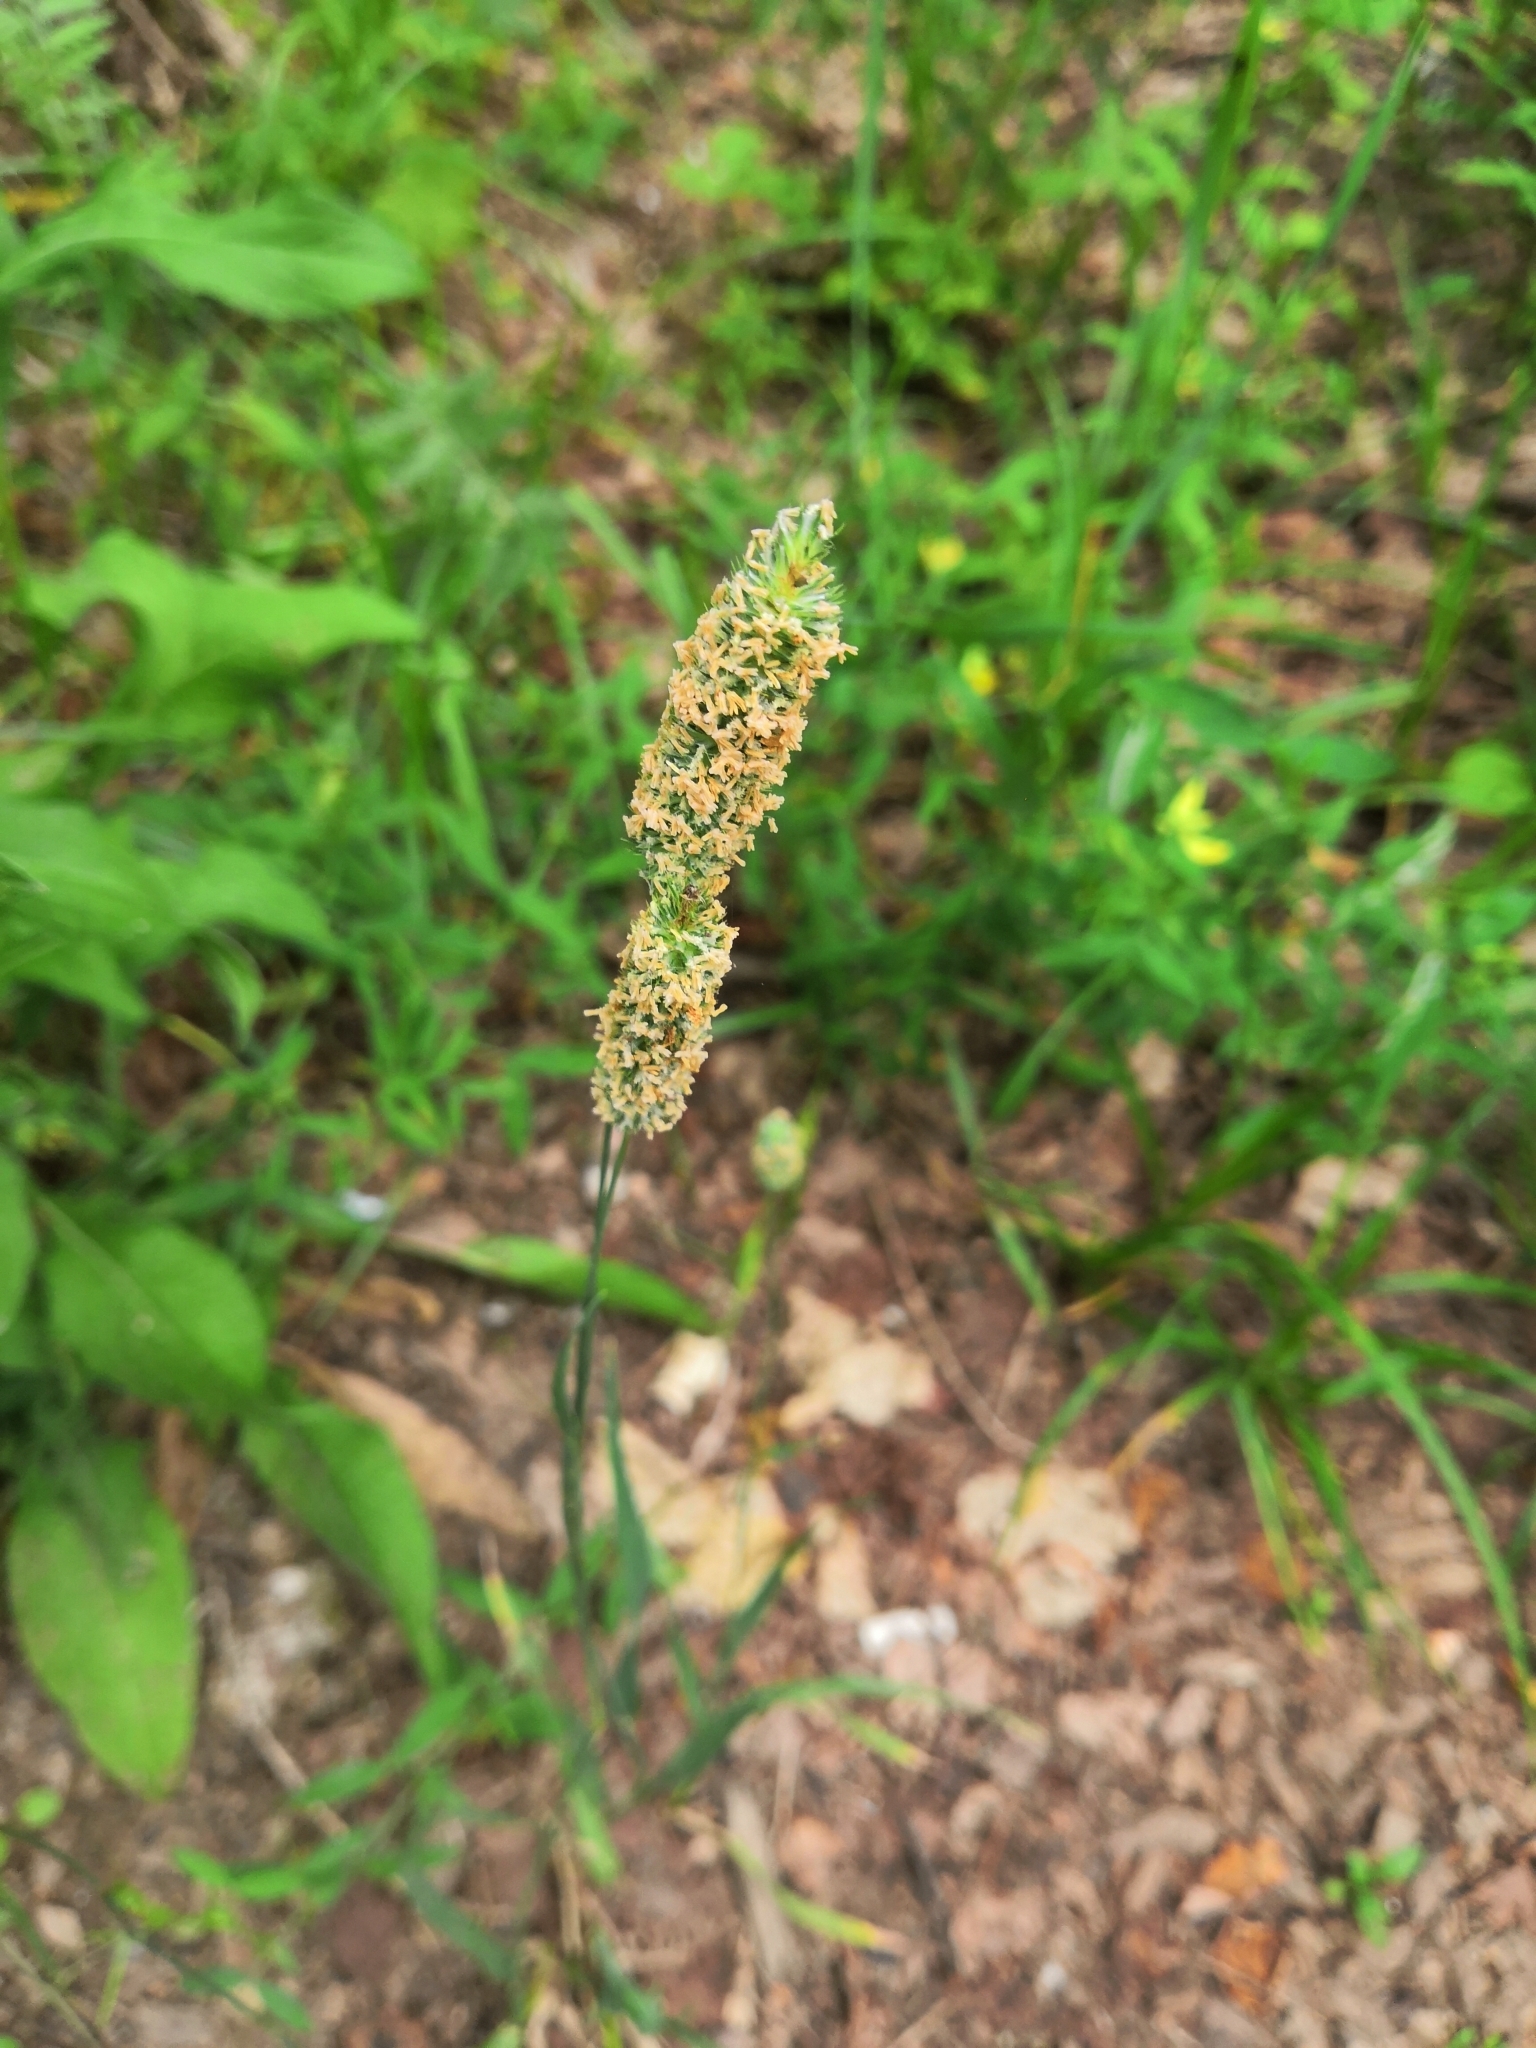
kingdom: Plantae
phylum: Tracheophyta
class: Liliopsida
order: Poales
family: Poaceae
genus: Phleum
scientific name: Phleum pratense
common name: Timothy grass
